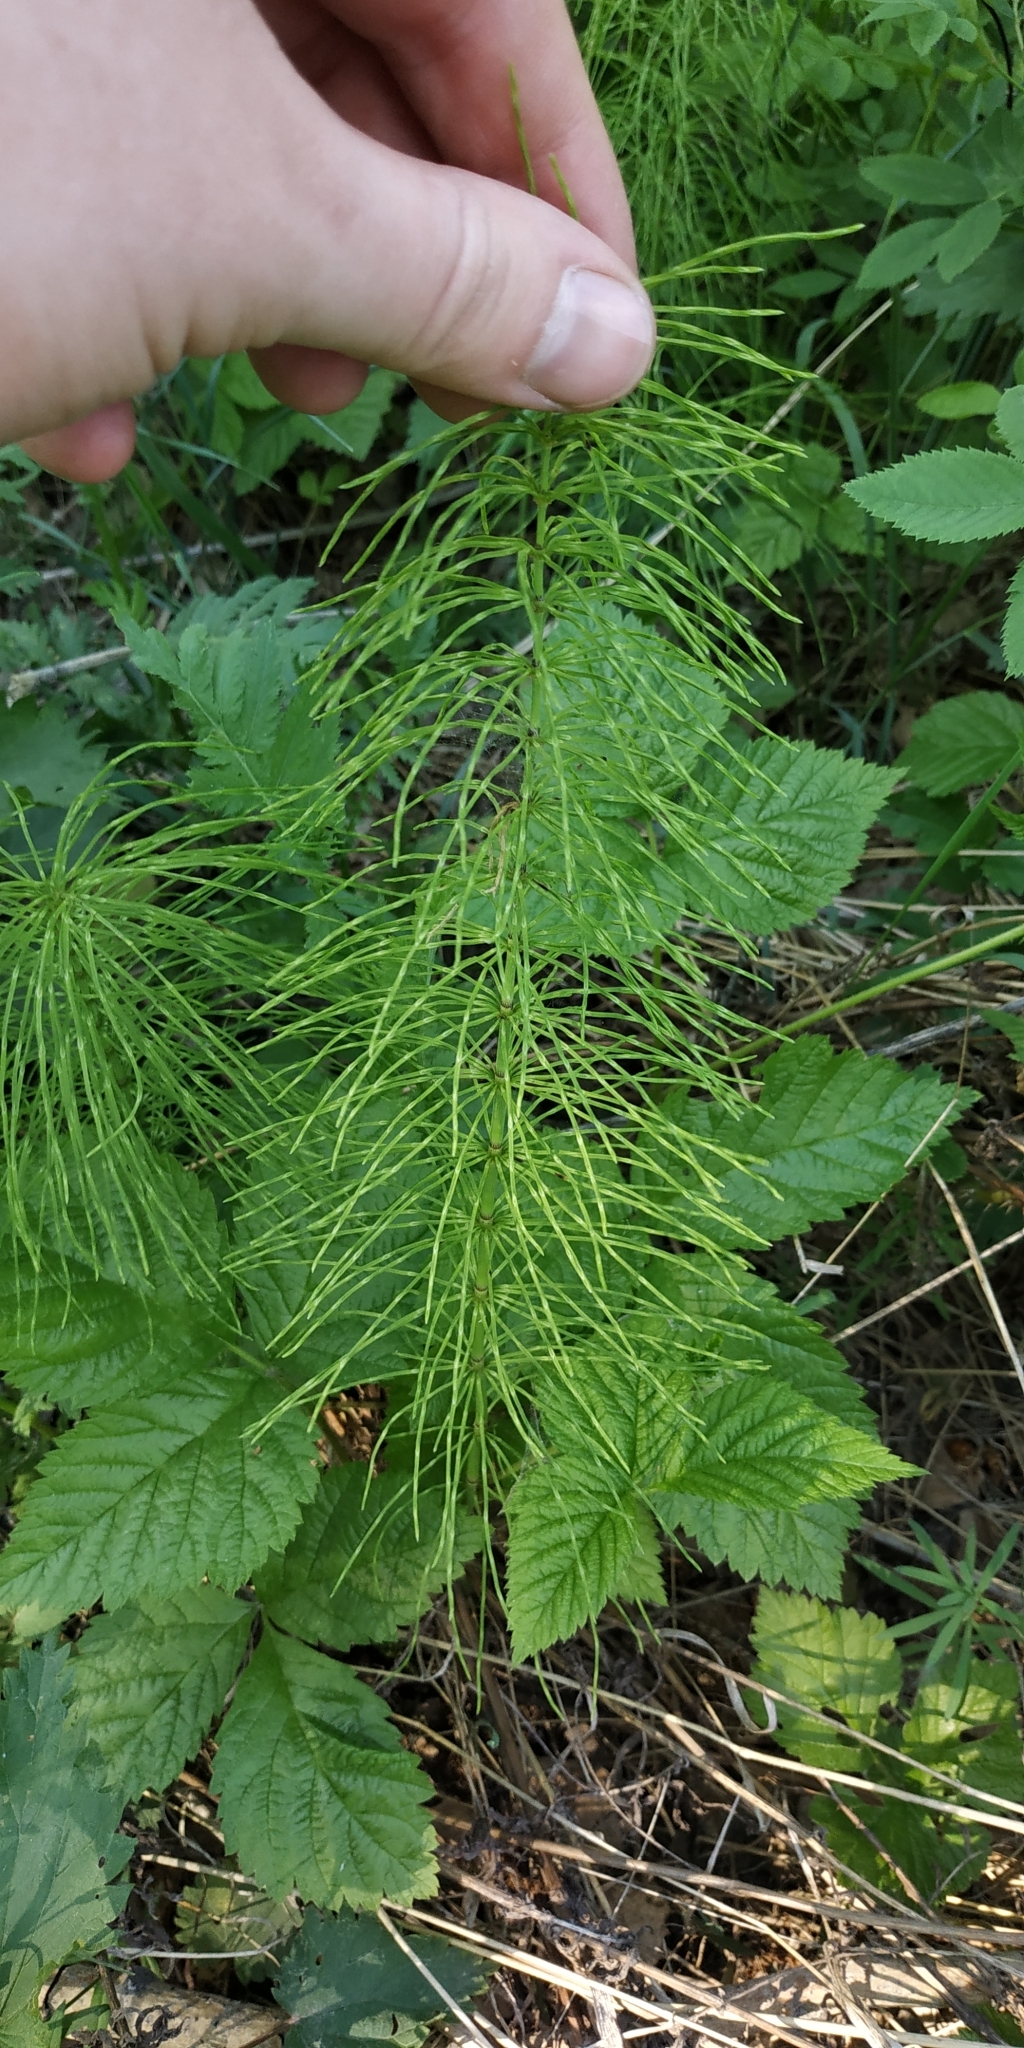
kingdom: Plantae
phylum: Tracheophyta
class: Polypodiopsida
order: Equisetales
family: Equisetaceae
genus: Equisetum
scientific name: Equisetum pratense
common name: Meadow horsetail
